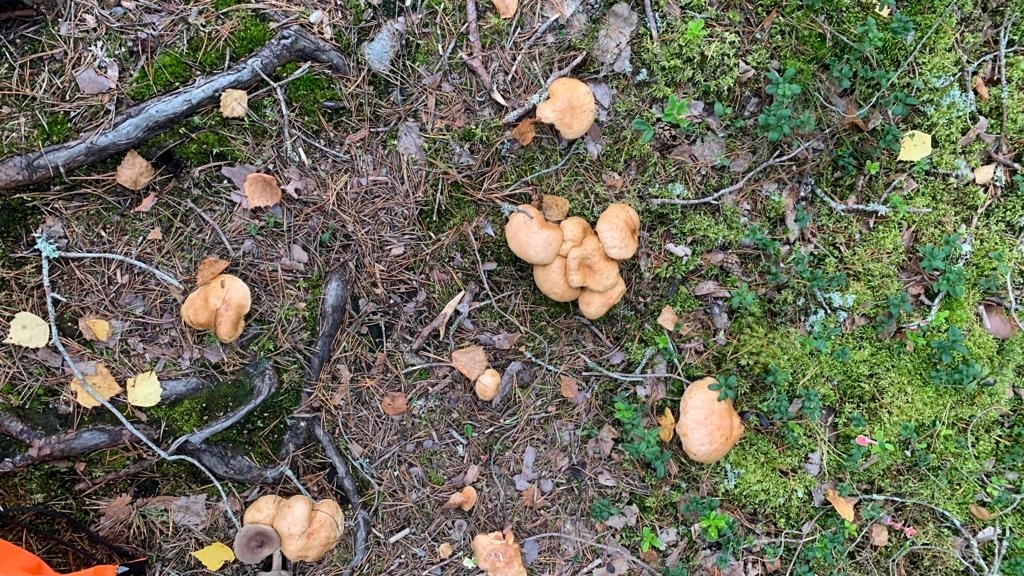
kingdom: Fungi
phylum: Basidiomycota
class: Agaricomycetes
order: Boletales
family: Suillaceae
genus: Suillus
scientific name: Suillus bovinus
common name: Bovine bolete
